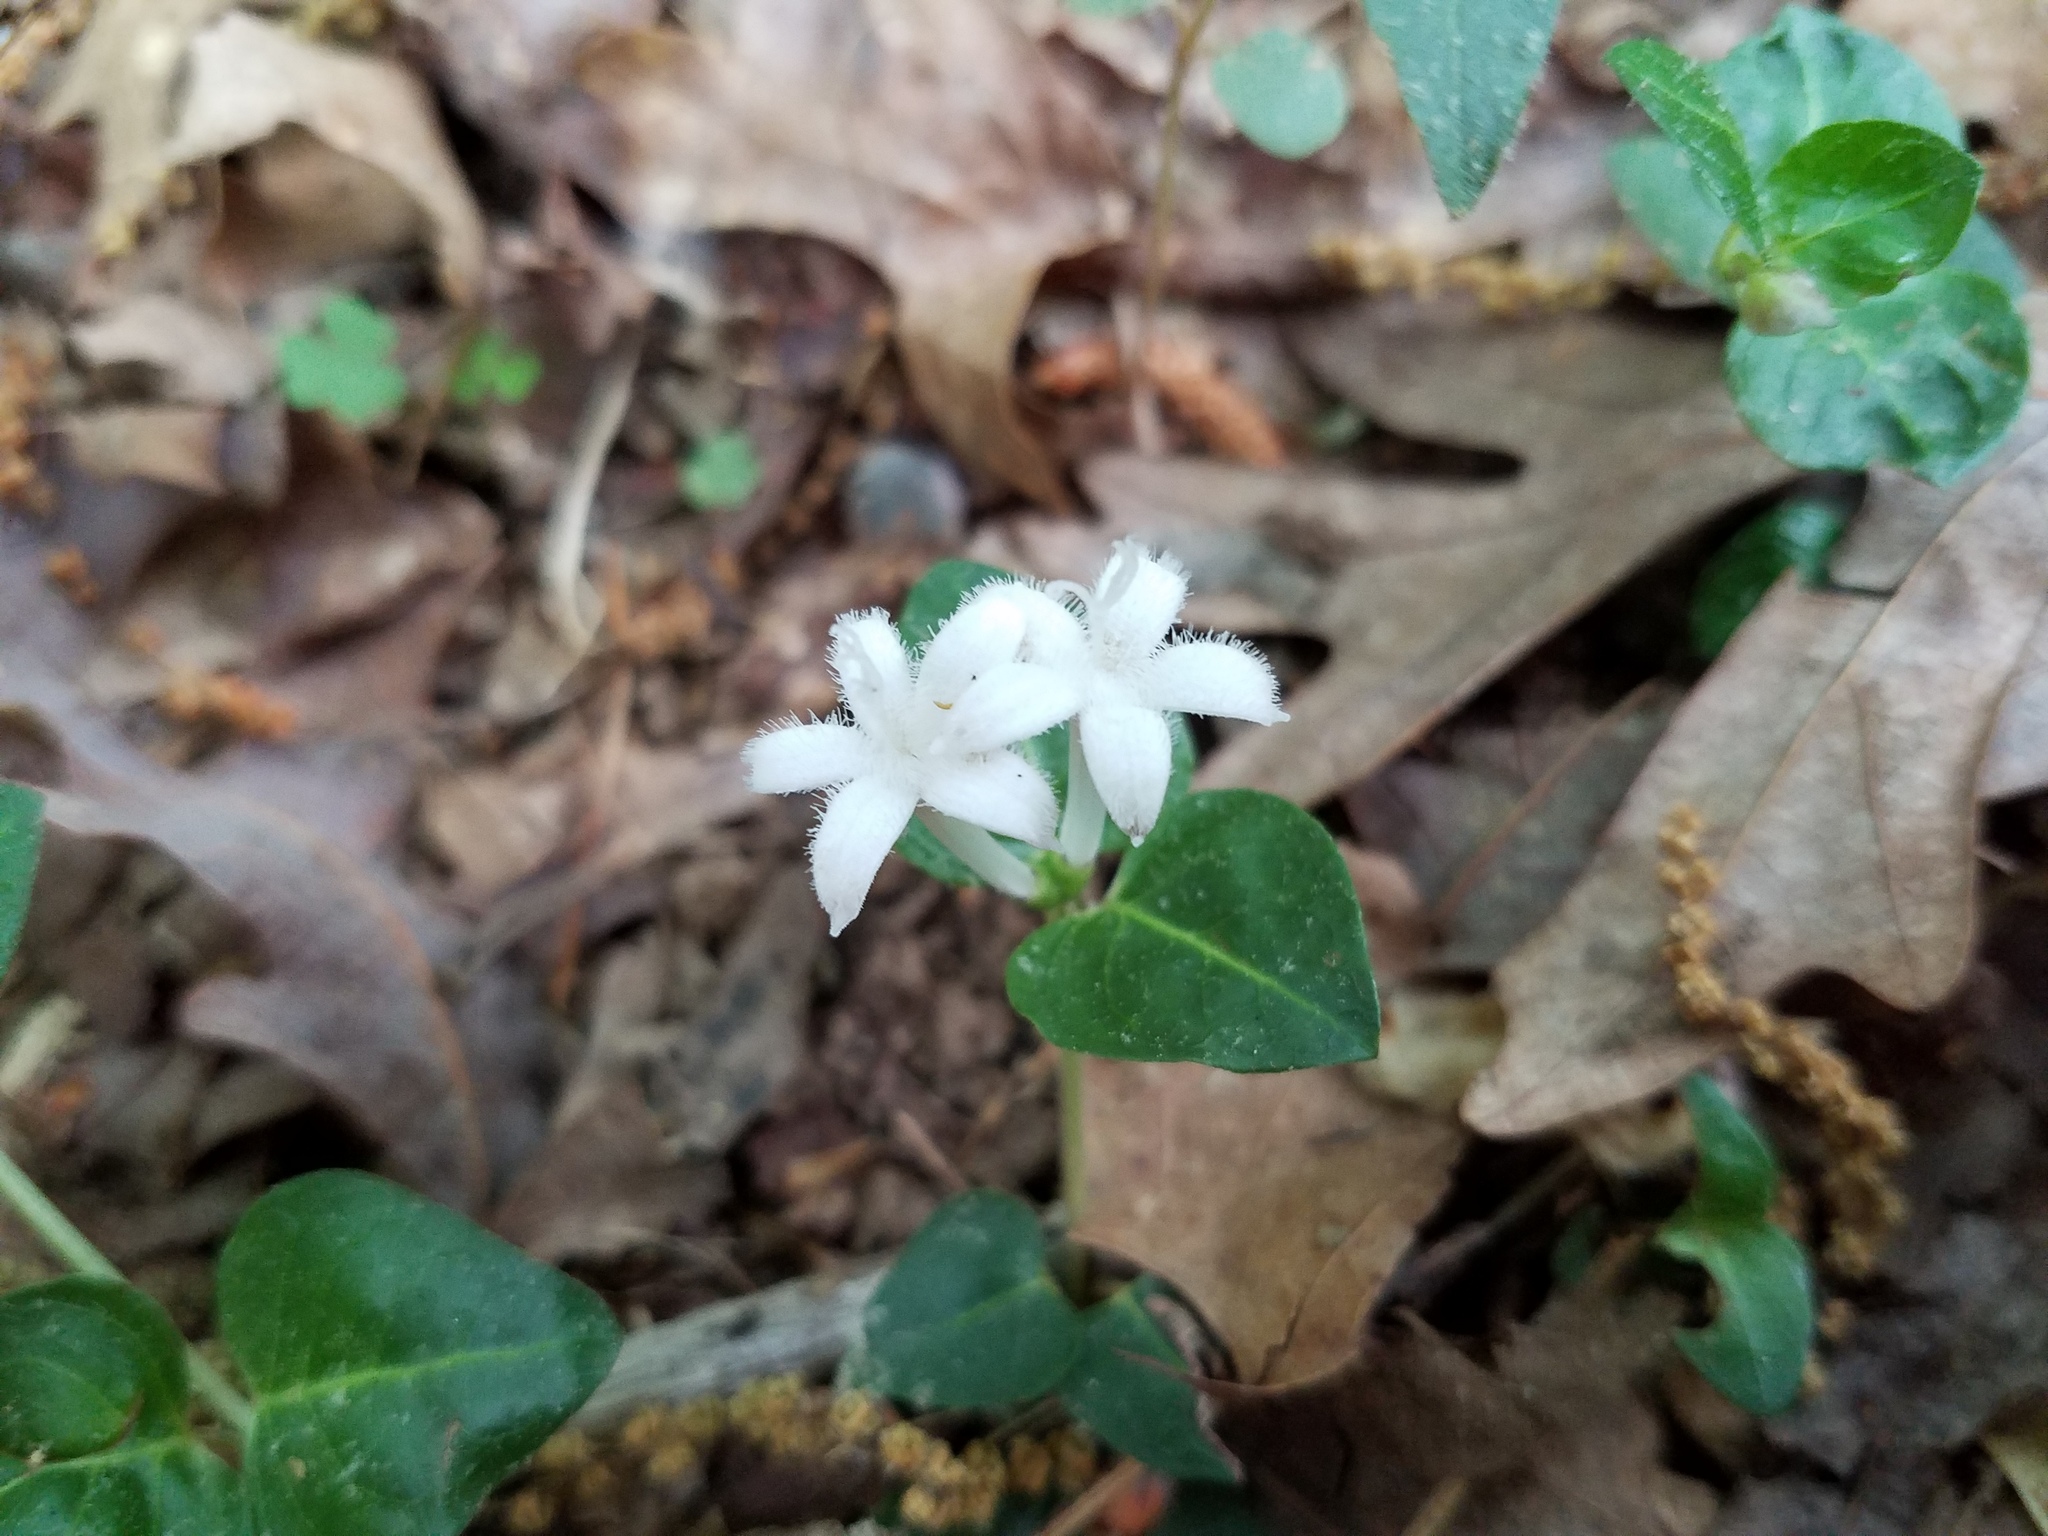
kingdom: Plantae
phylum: Tracheophyta
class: Magnoliopsida
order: Gentianales
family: Rubiaceae
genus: Mitchella
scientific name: Mitchella repens
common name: Partridge-berry
